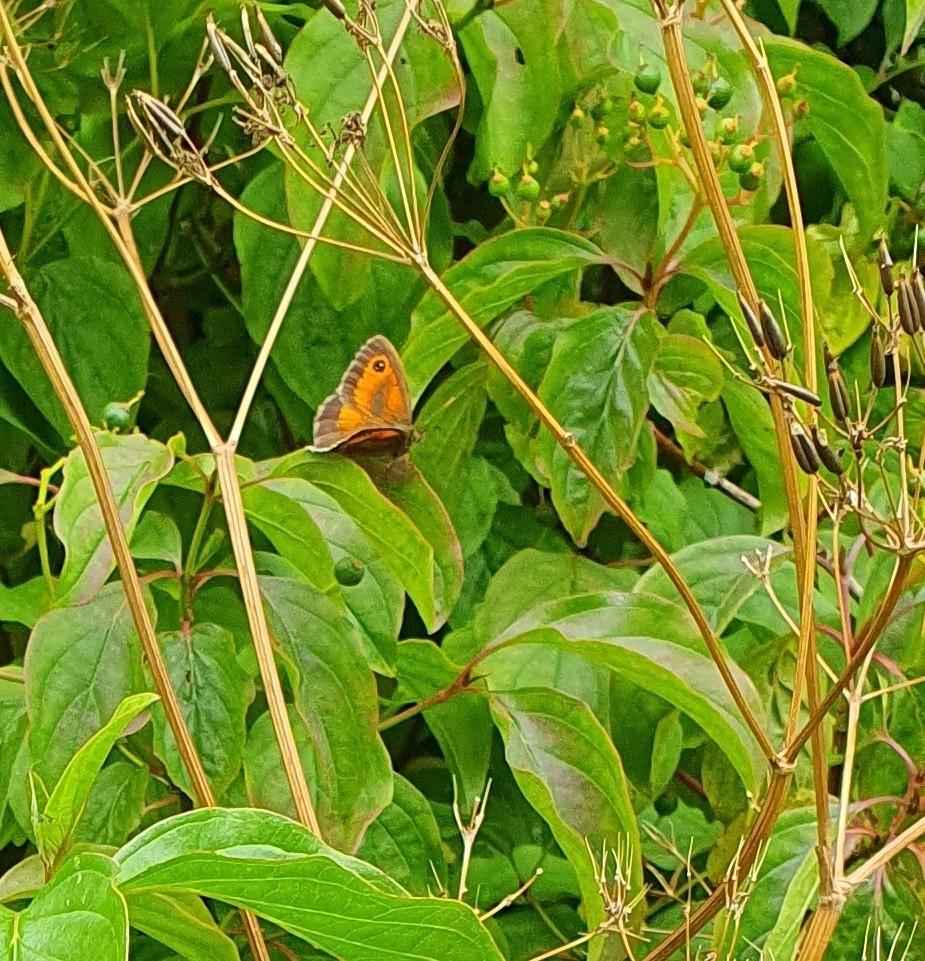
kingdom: Animalia
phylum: Arthropoda
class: Insecta
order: Lepidoptera
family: Nymphalidae
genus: Pyronia
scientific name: Pyronia tithonus
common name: Gatekeeper
